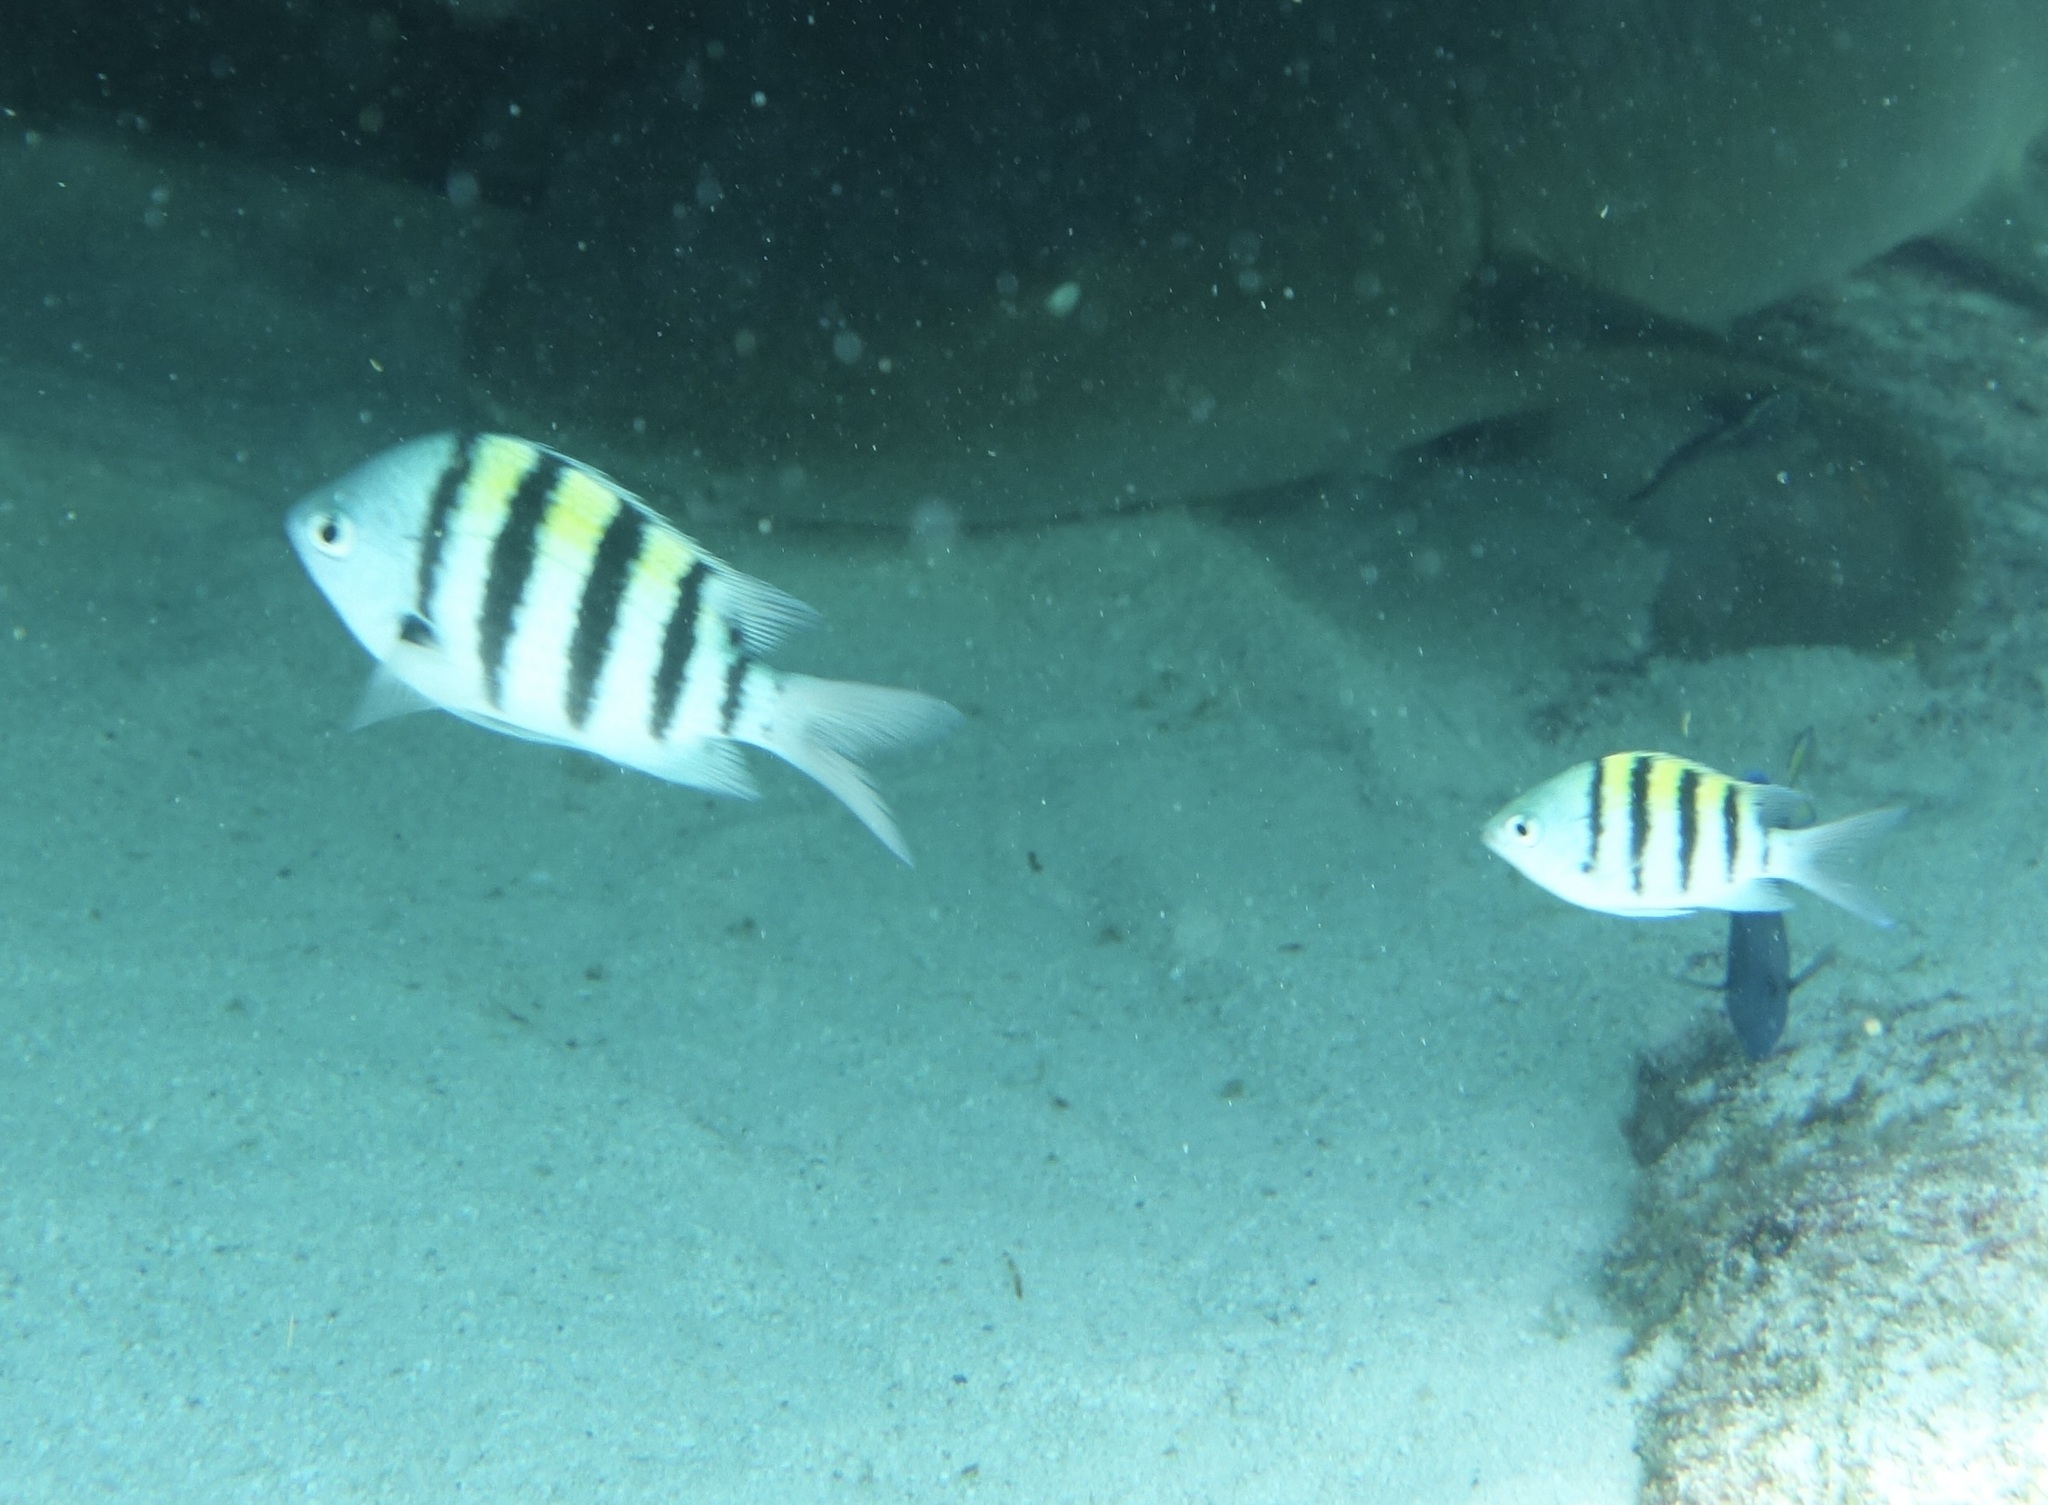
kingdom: Animalia
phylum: Chordata
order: Perciformes
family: Pomacentridae
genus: Abudefduf
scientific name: Abudefduf saxatilis
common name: Sergeant major
